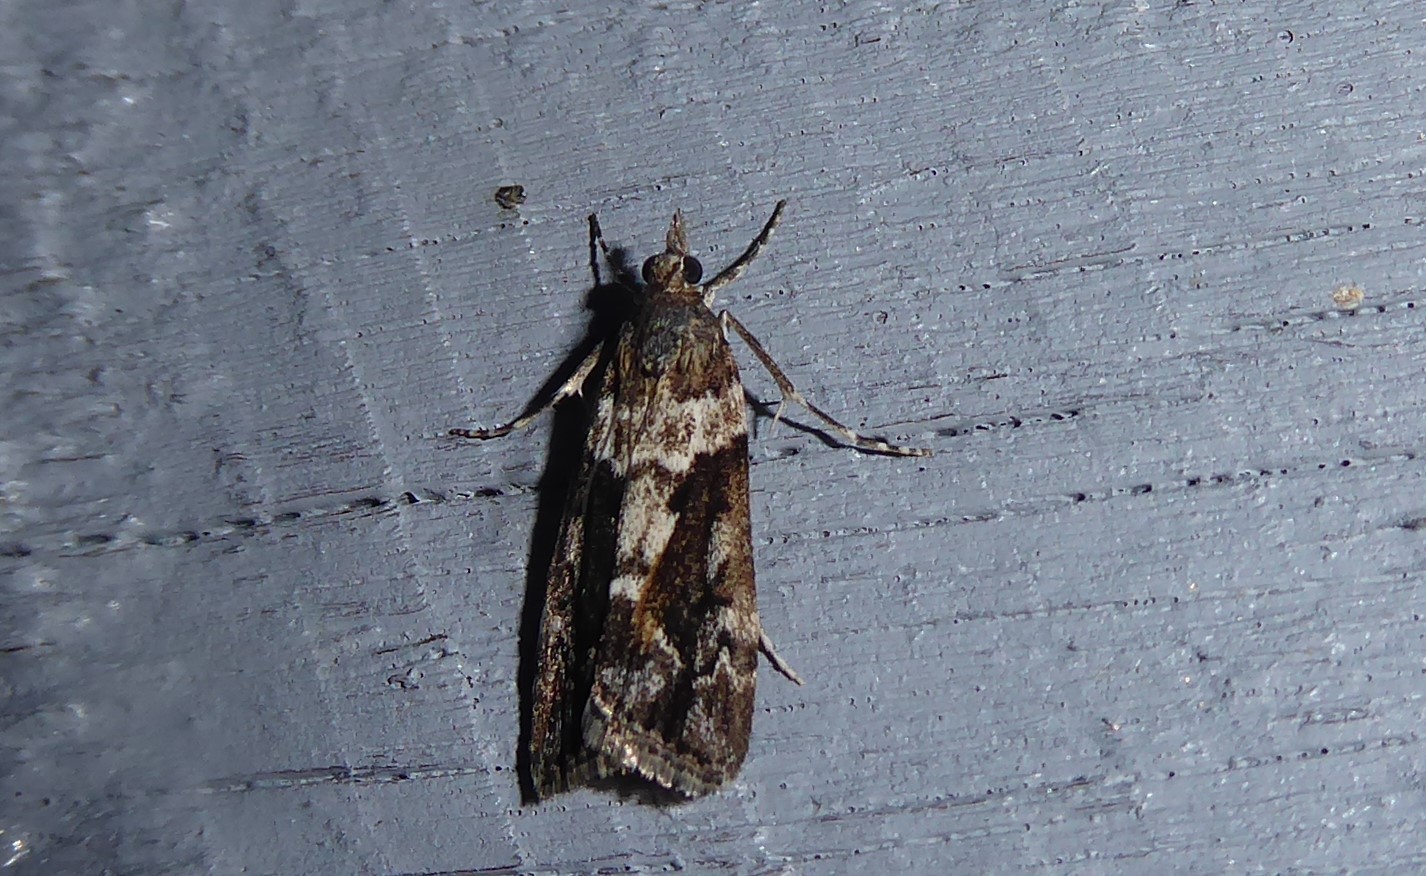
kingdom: Animalia
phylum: Arthropoda
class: Insecta
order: Lepidoptera
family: Crambidae
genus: Eudonia
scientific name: Eudonia submarginalis
